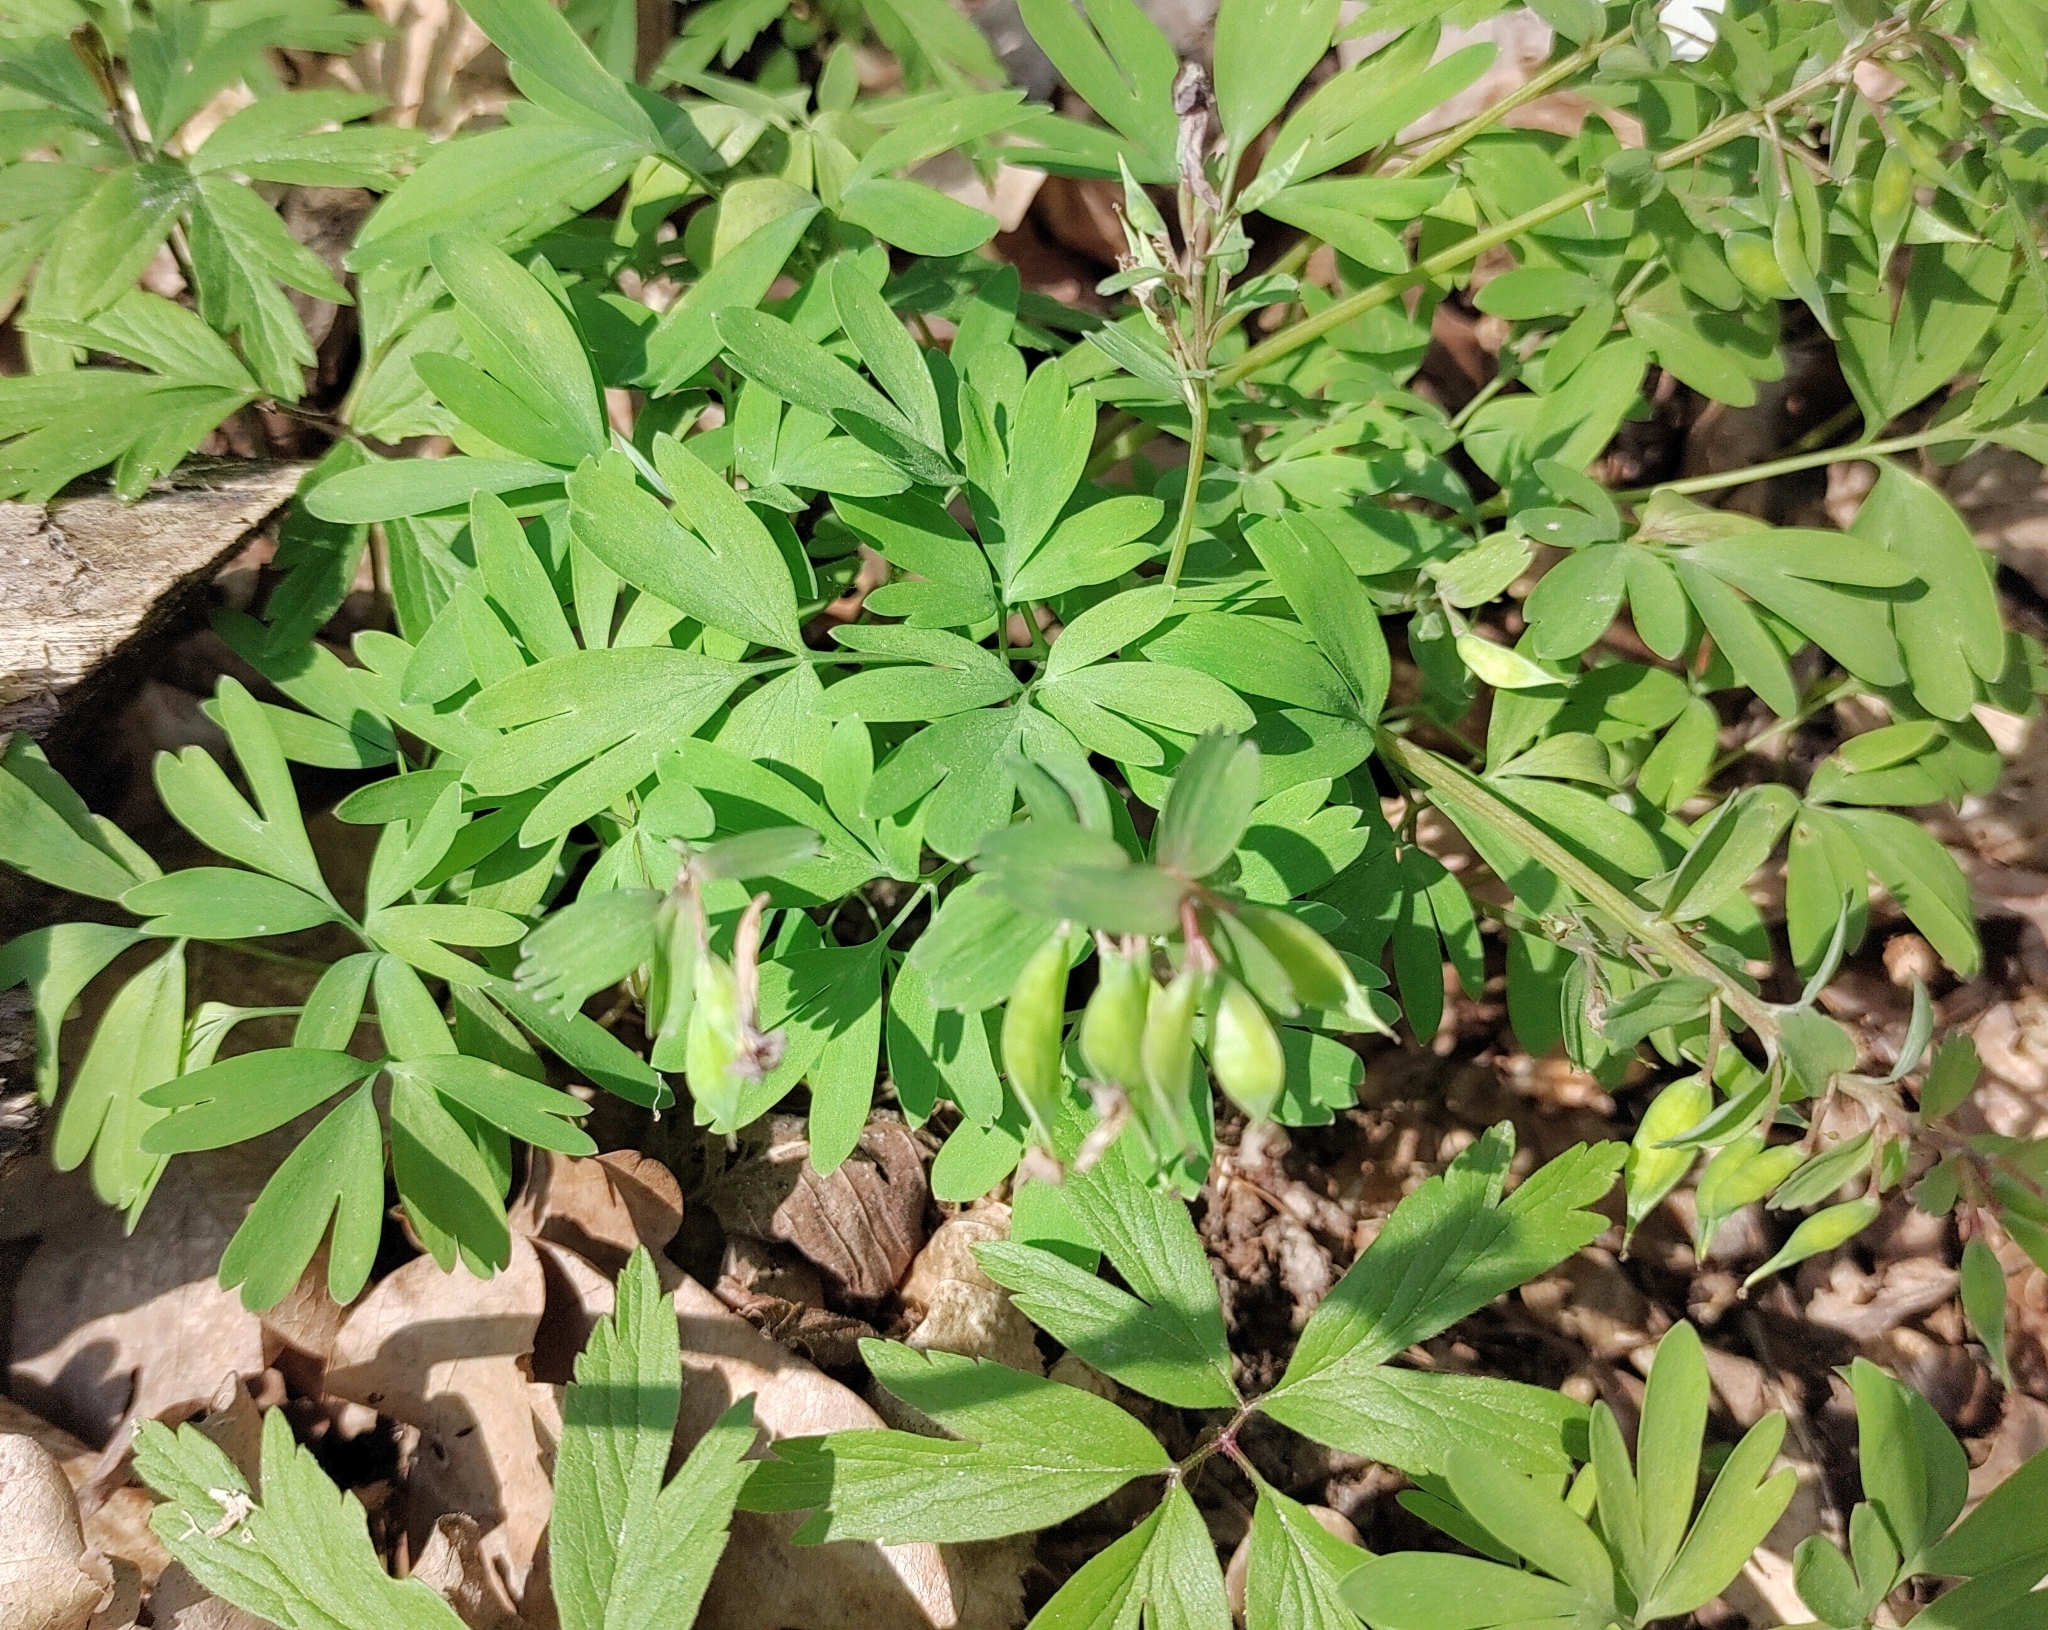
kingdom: Plantae
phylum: Tracheophyta
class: Magnoliopsida
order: Ranunculales
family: Papaveraceae
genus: Corydalis
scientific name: Corydalis solida
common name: Bird-in-a-bush
